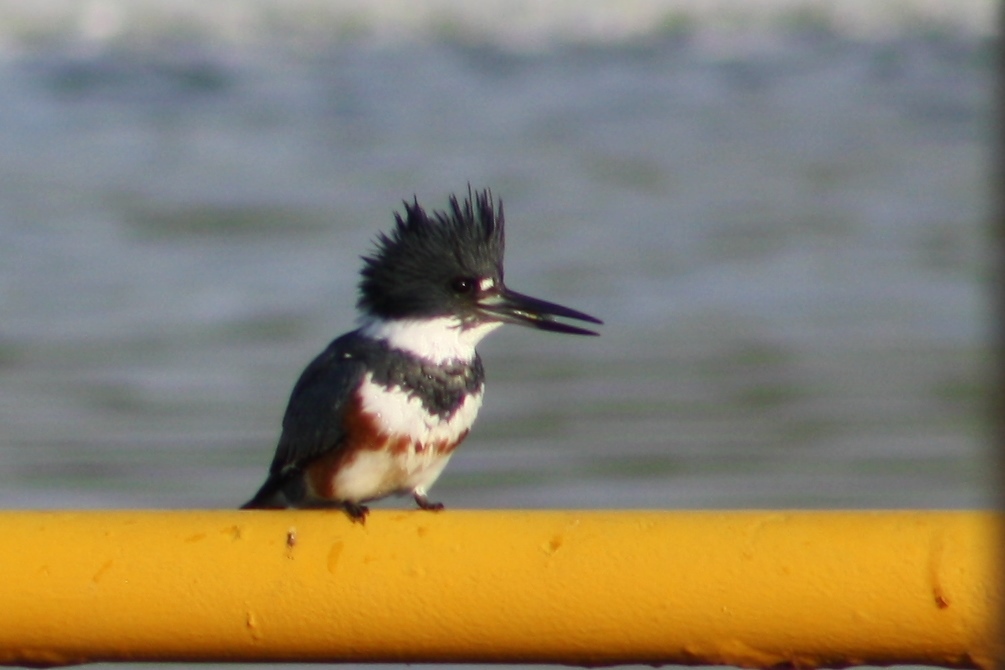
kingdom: Animalia
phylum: Chordata
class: Aves
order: Coraciiformes
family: Alcedinidae
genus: Megaceryle
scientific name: Megaceryle alcyon
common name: Belted kingfisher
